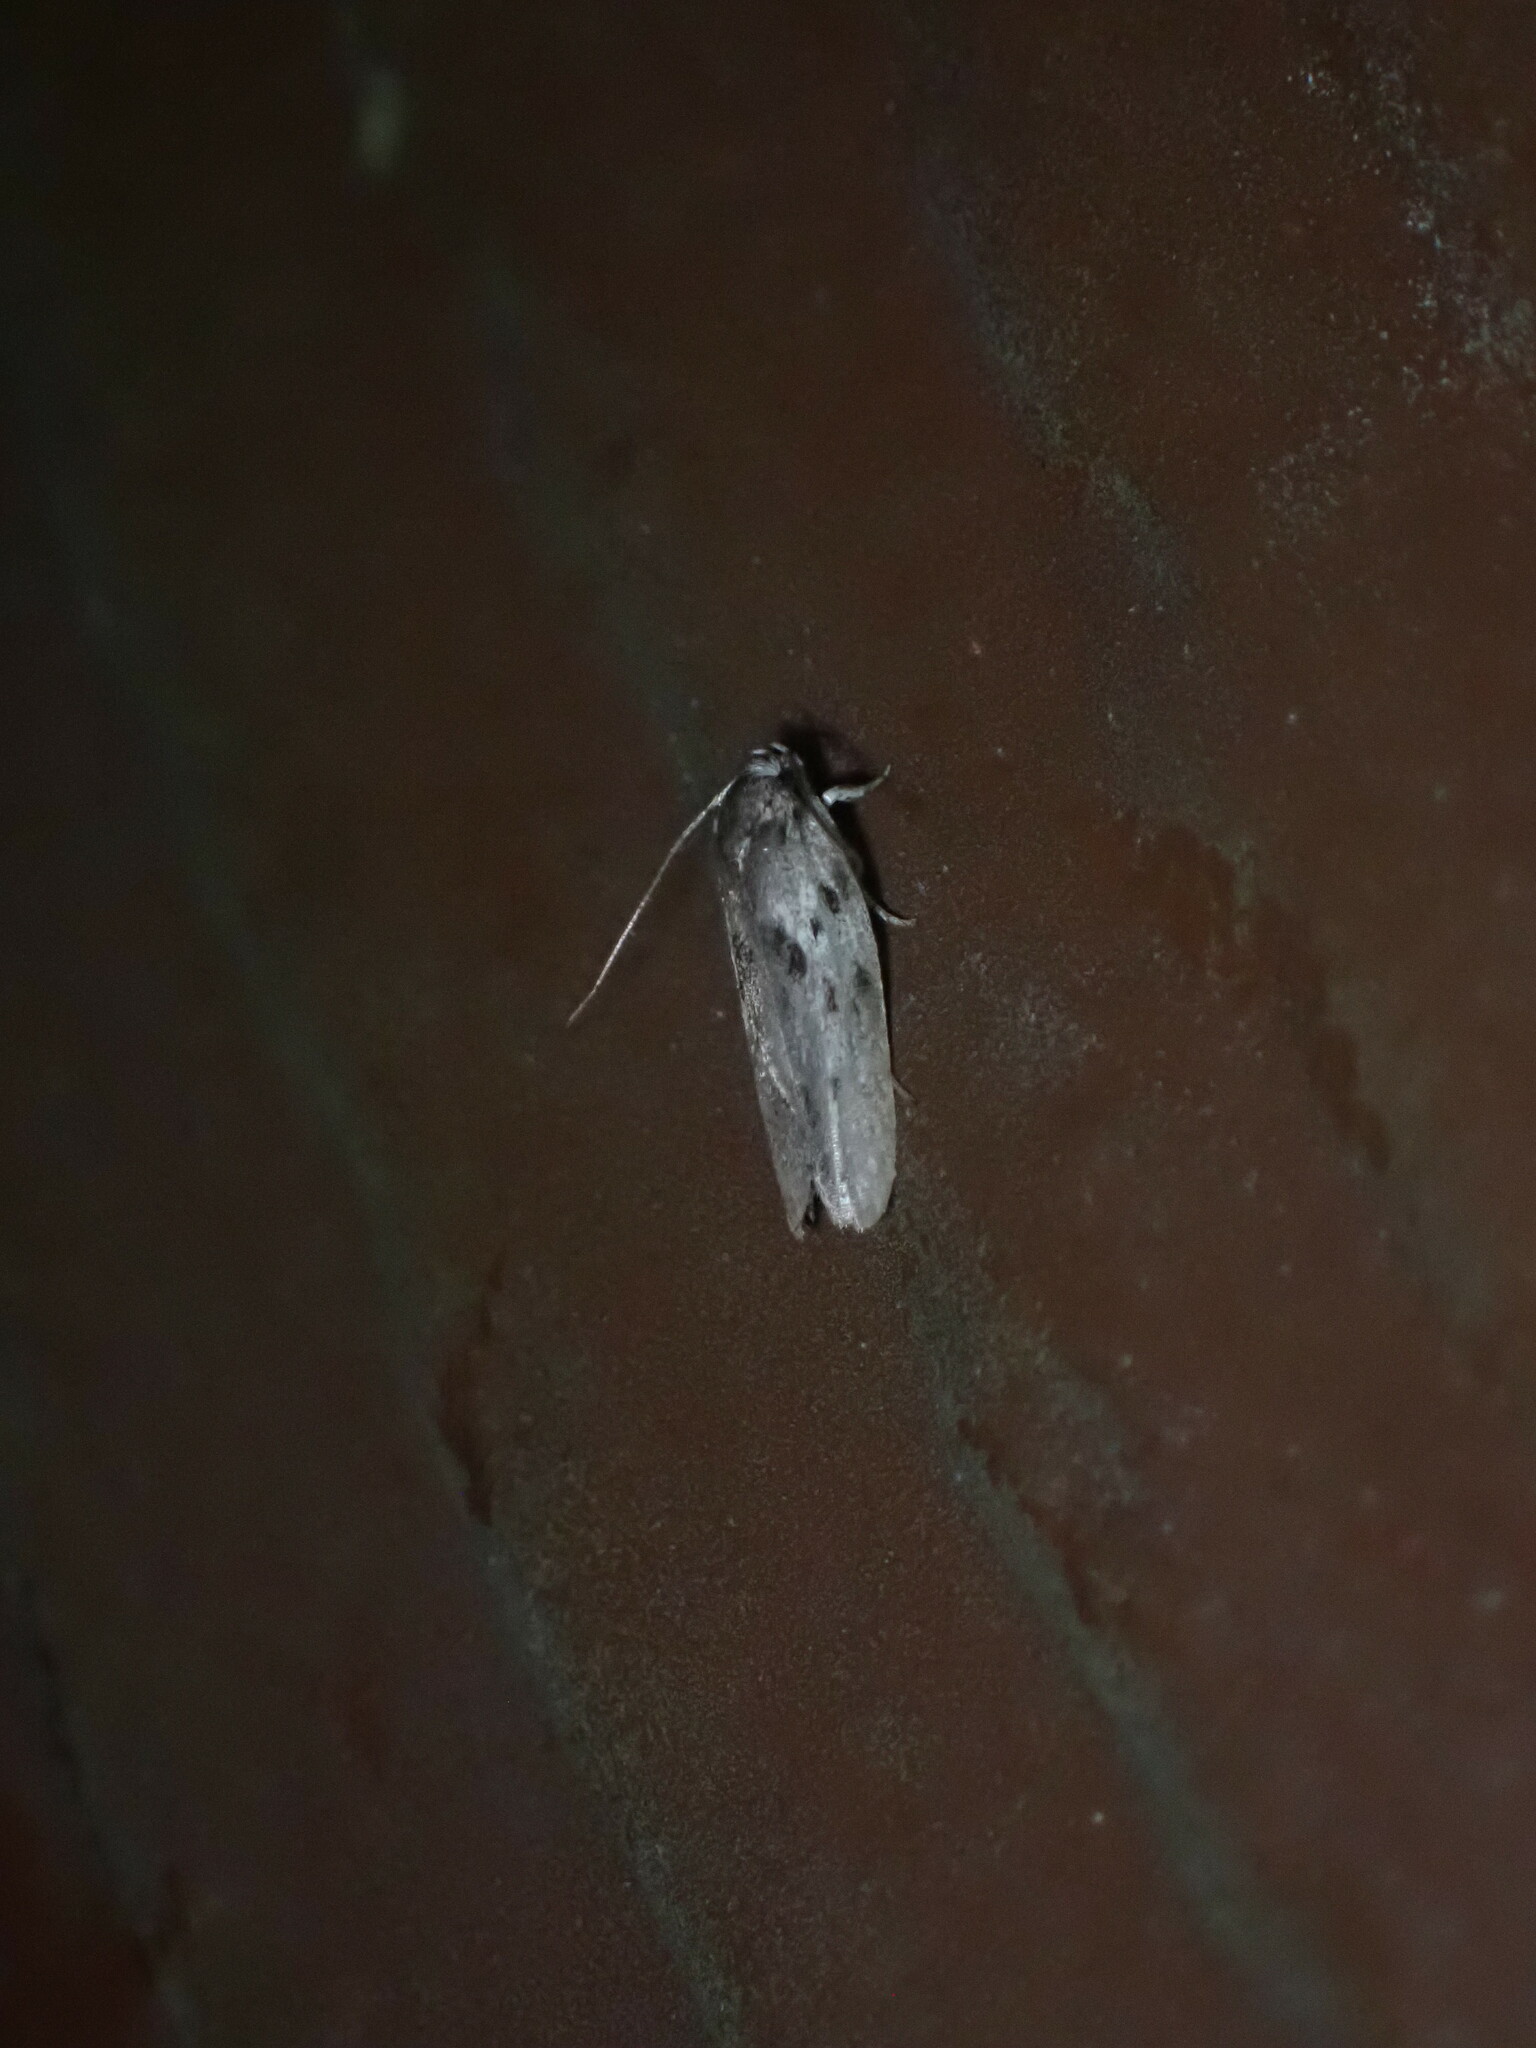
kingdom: Animalia
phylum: Arthropoda
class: Insecta
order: Lepidoptera
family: Depressariidae
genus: Antaeotricha
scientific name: Antaeotricha humilis
